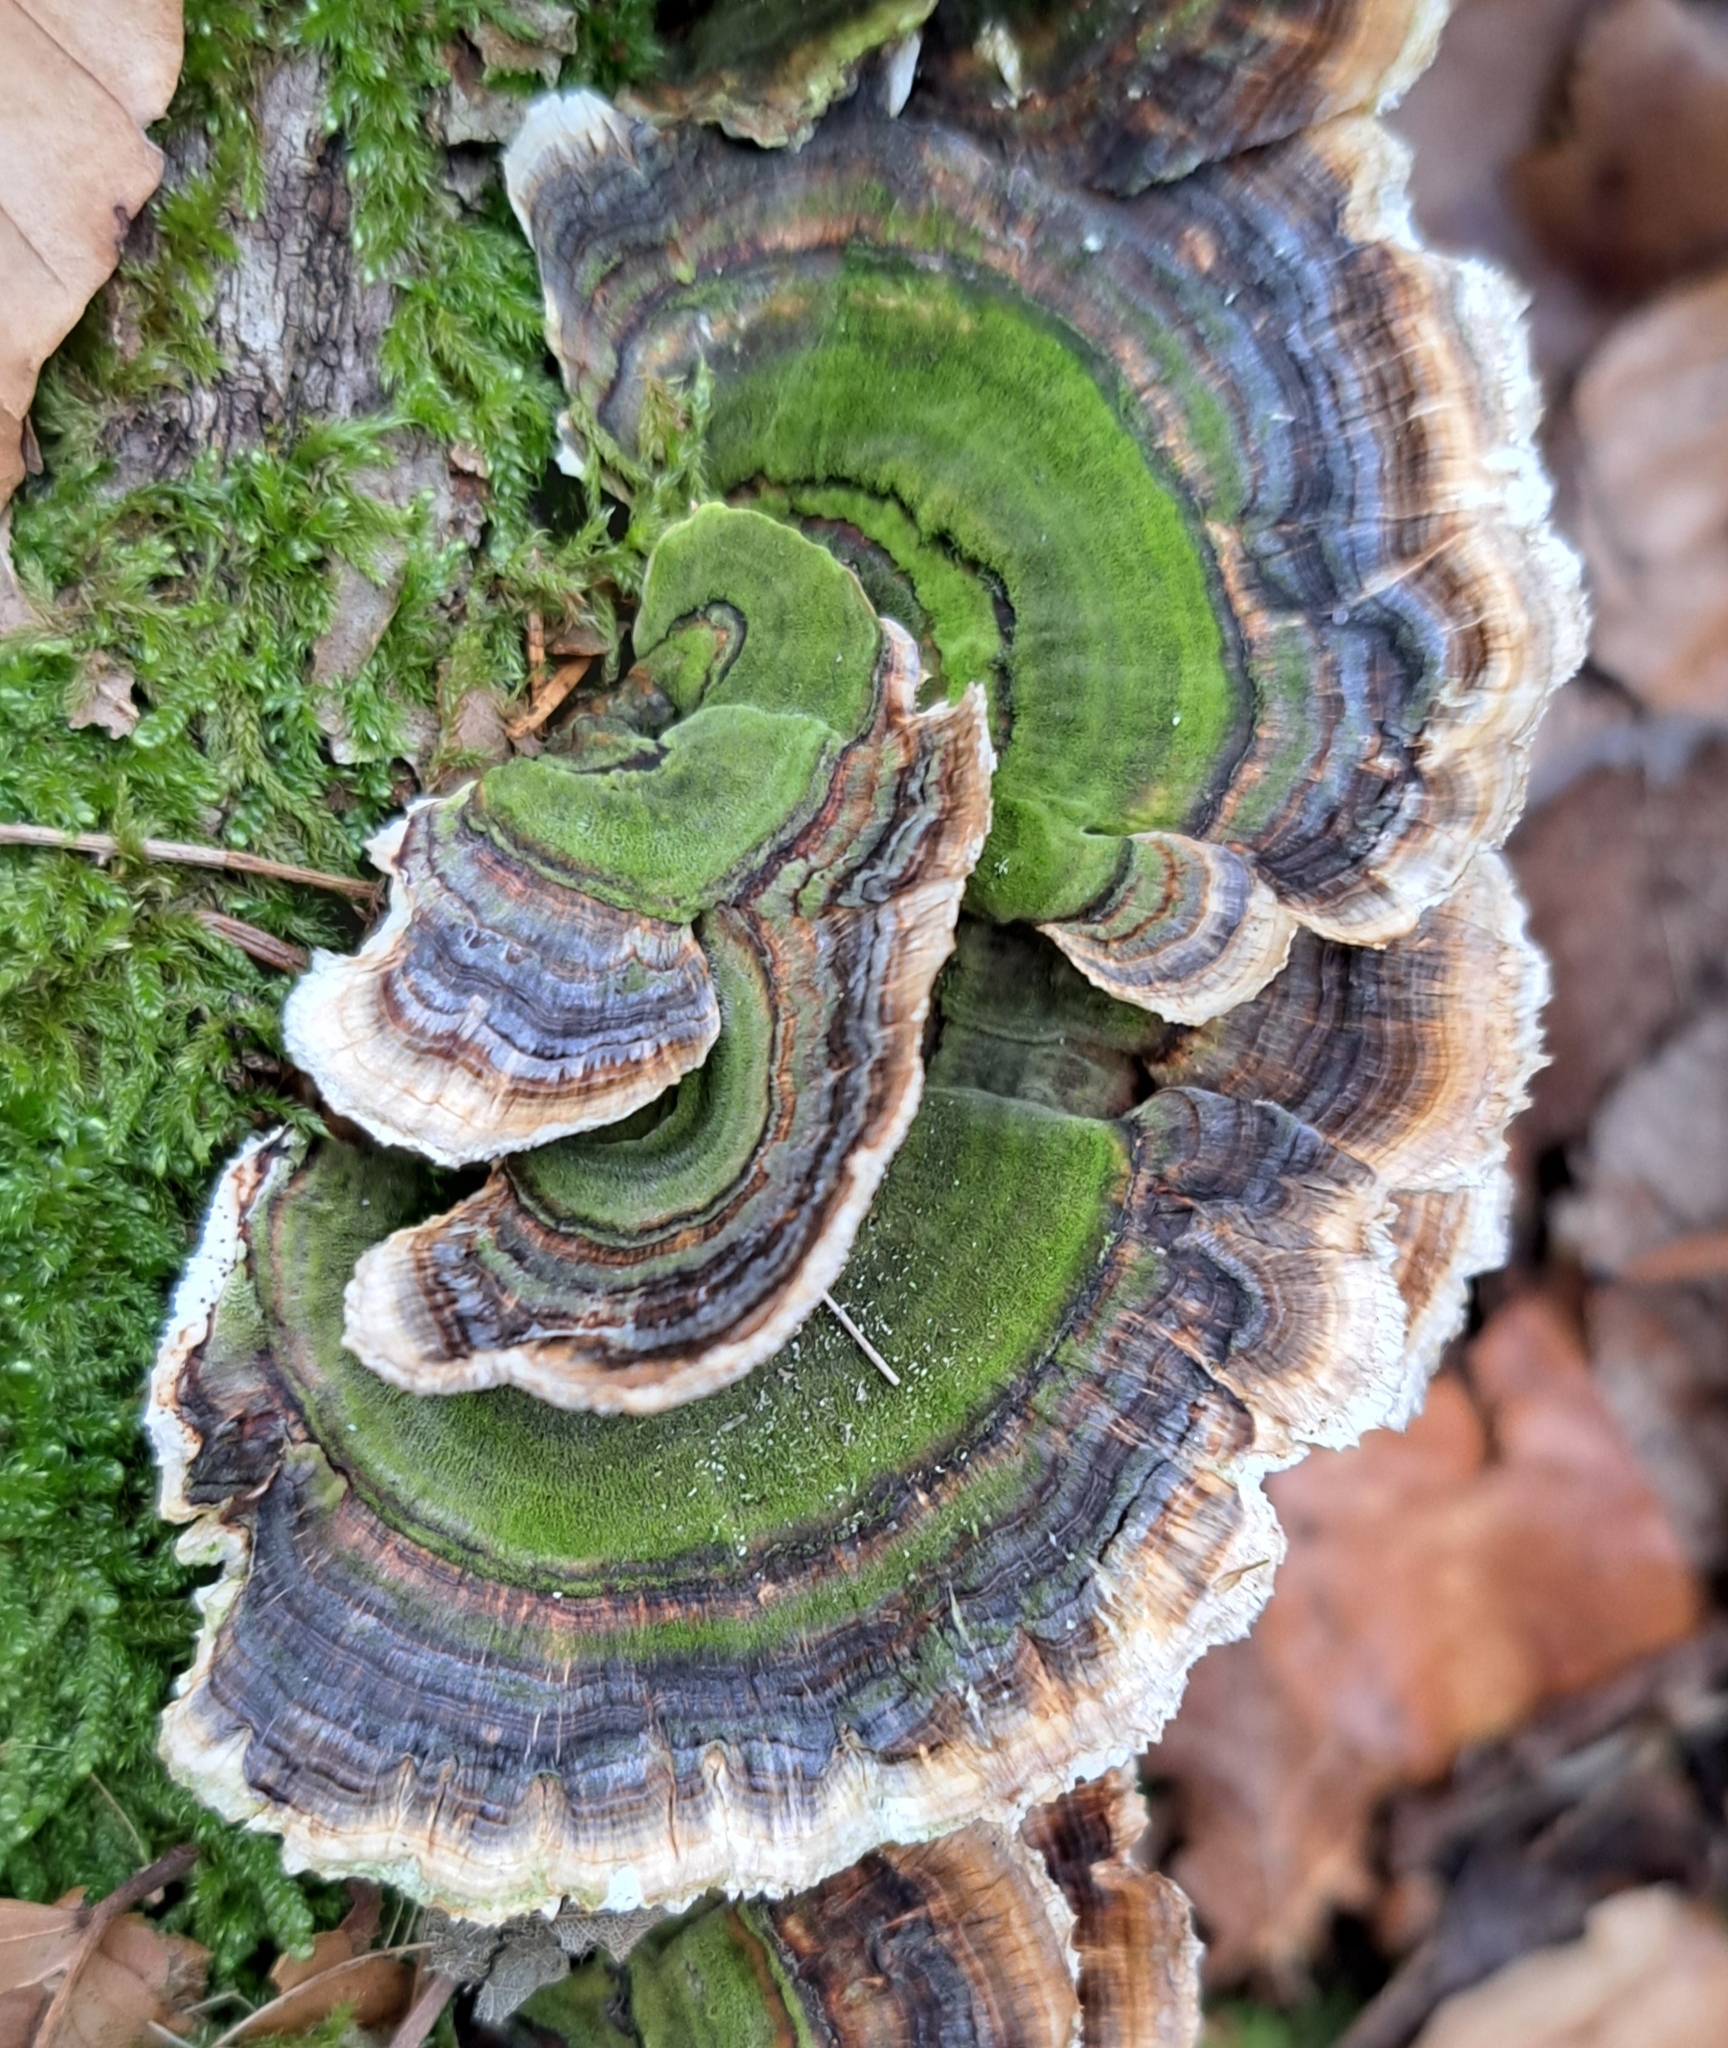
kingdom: Fungi
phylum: Basidiomycota
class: Agaricomycetes
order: Polyporales
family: Polyporaceae
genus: Trametes
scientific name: Trametes versicolor
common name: Turkeytail
